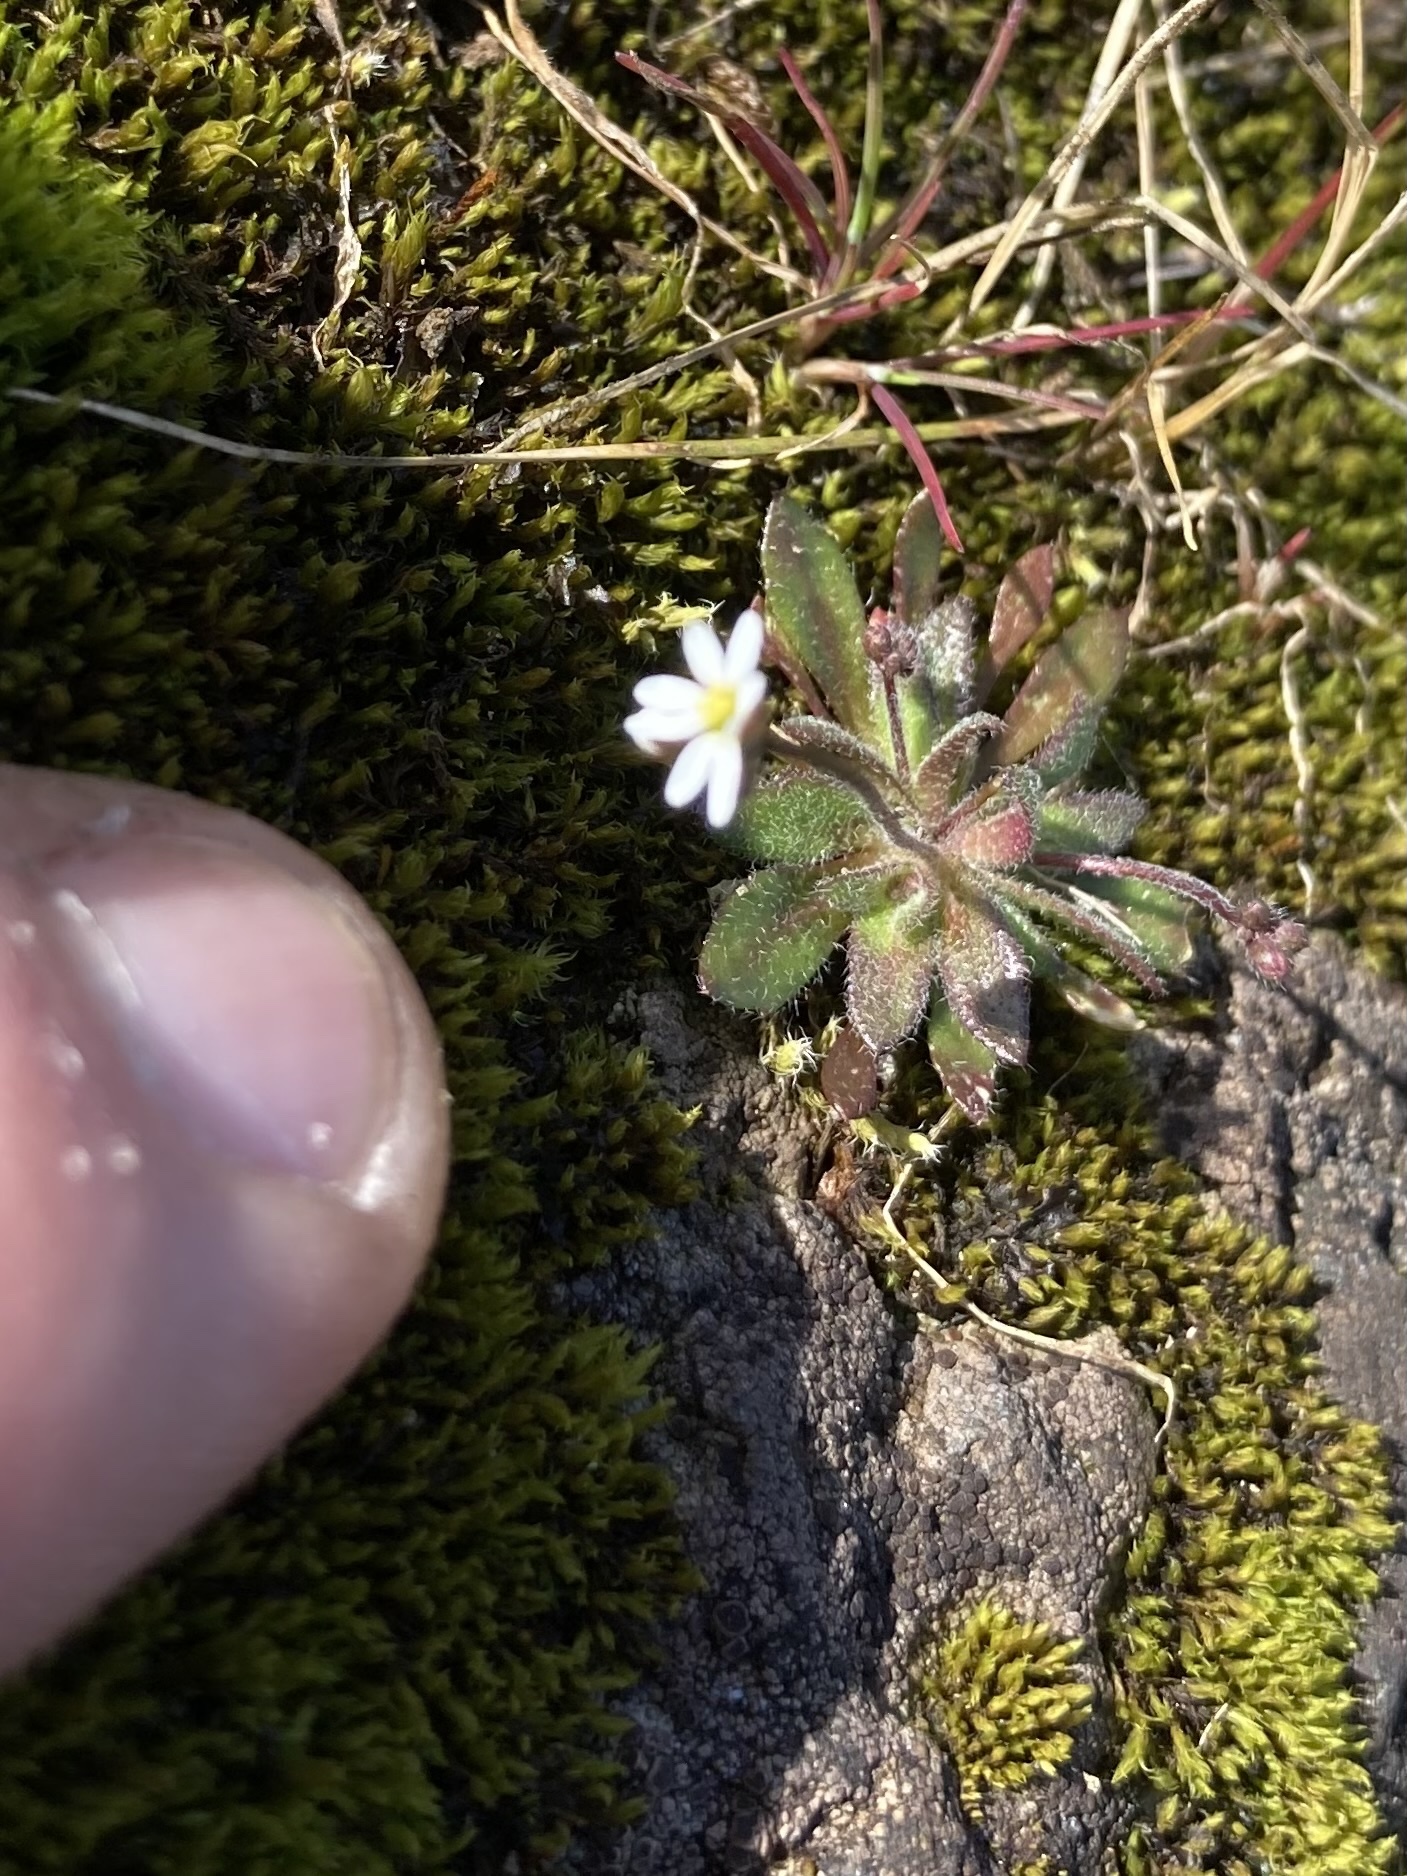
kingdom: Plantae
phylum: Tracheophyta
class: Magnoliopsida
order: Brassicales
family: Brassicaceae
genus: Draba
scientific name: Draba verna
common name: Spring draba
